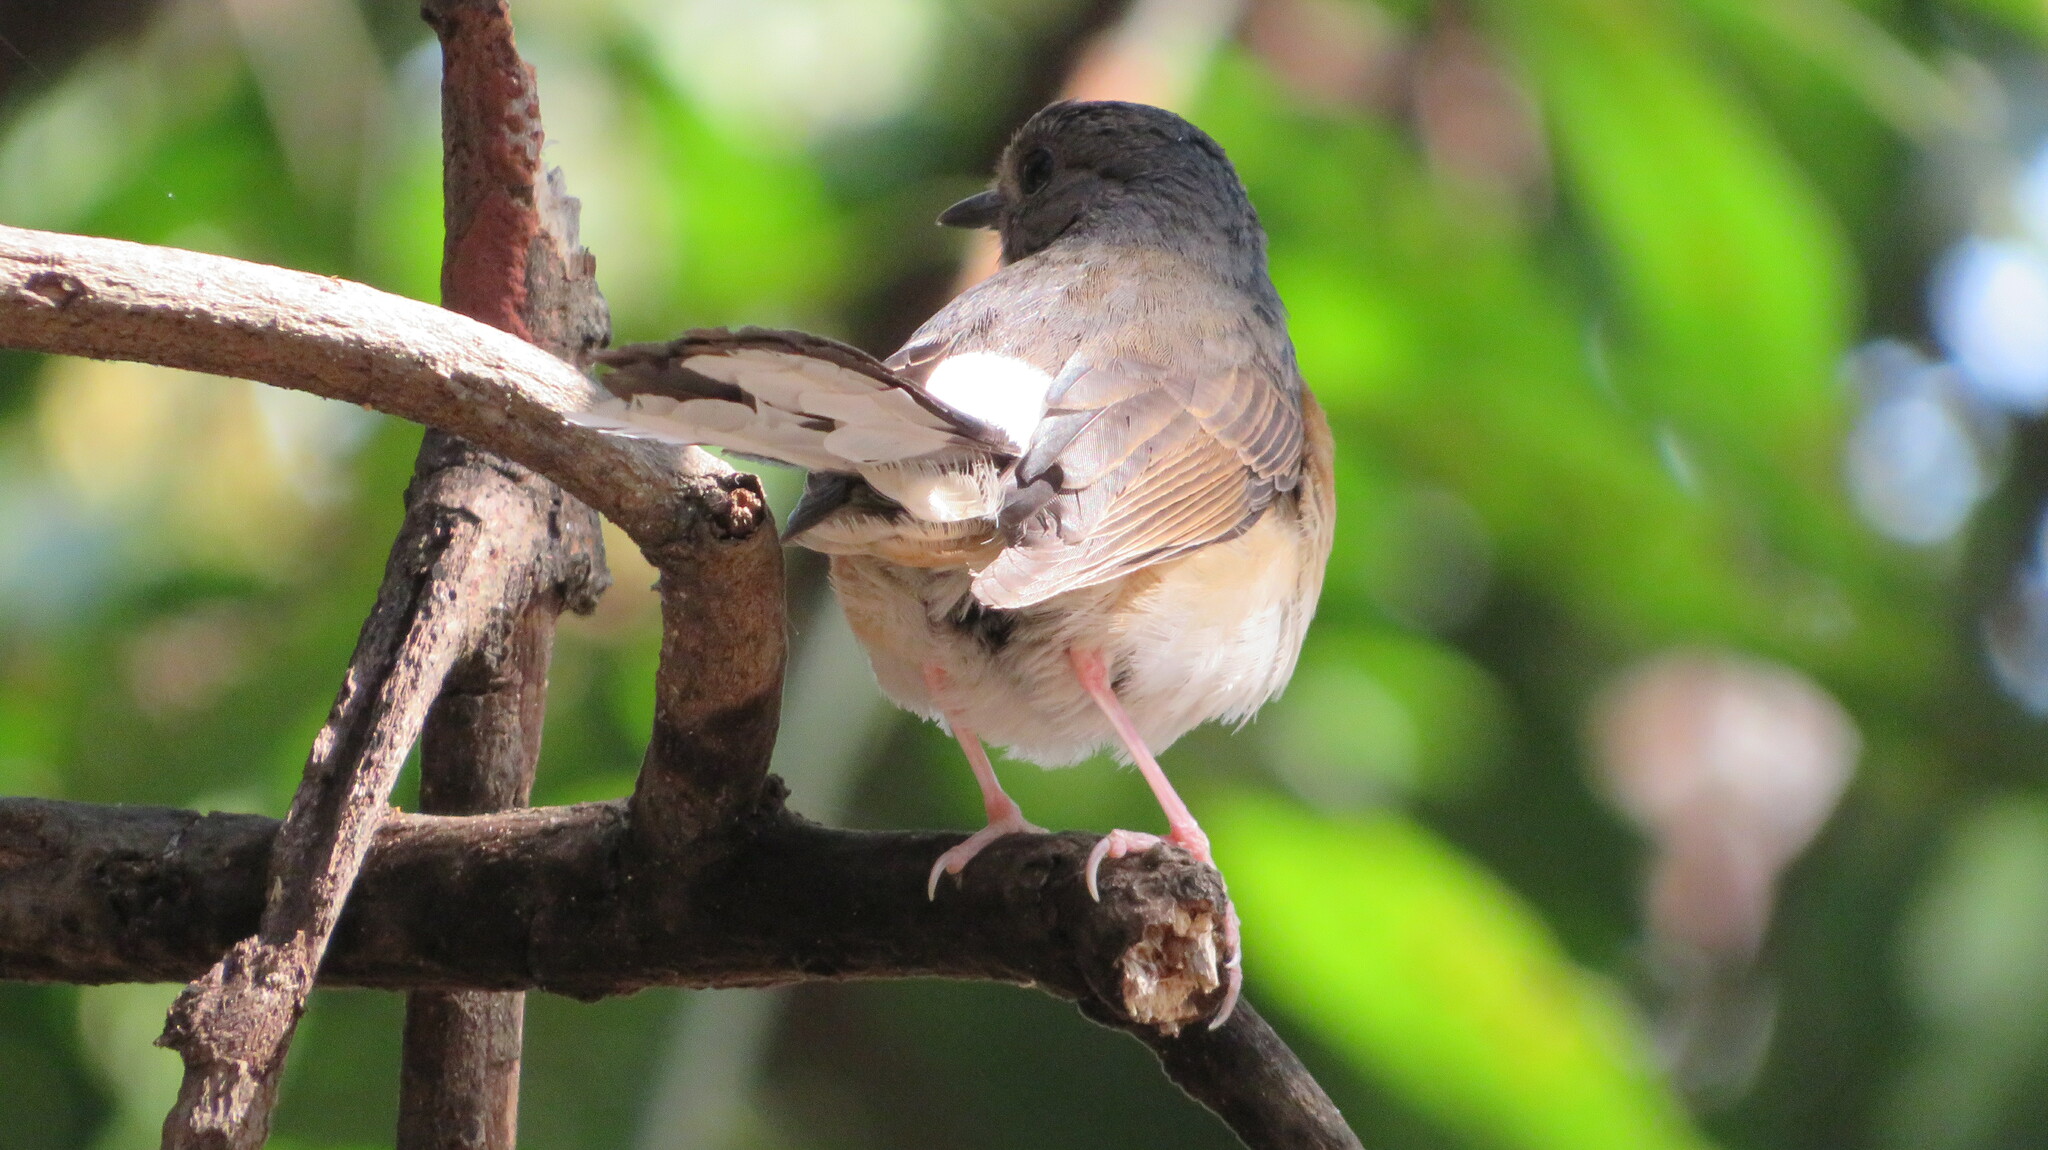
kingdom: Animalia
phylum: Chordata
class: Aves
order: Passeriformes
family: Muscicapidae
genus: Copsychus
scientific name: Copsychus malabaricus
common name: White-rumped shama
